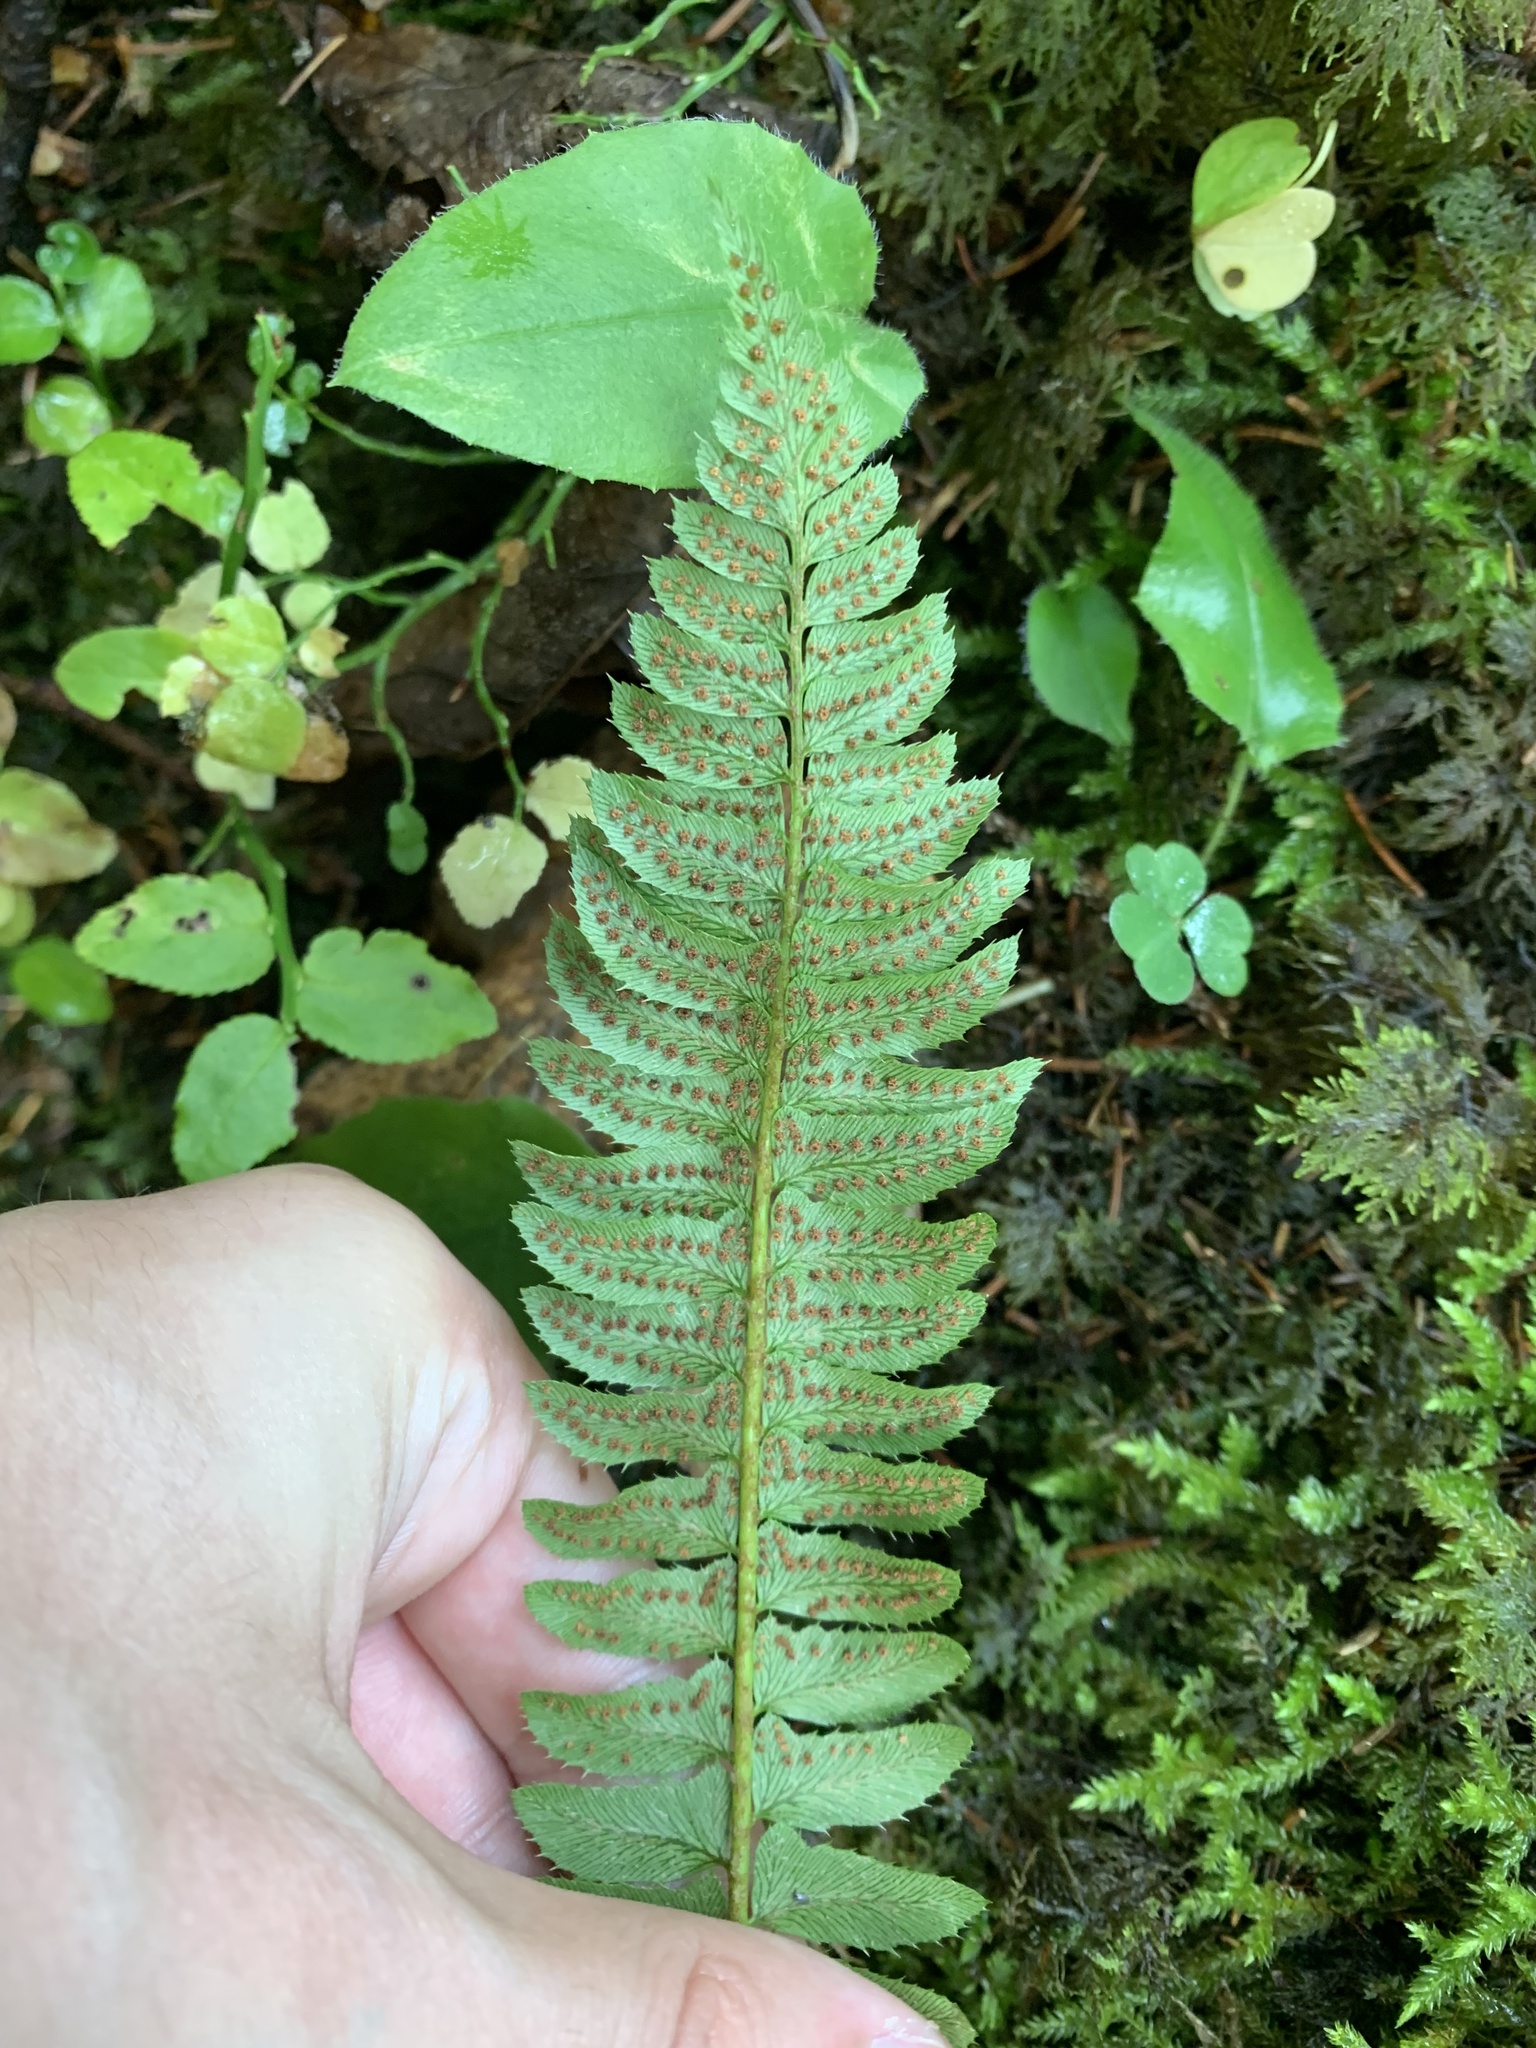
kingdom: Plantae
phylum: Tracheophyta
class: Polypodiopsida
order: Polypodiales
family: Dryopteridaceae
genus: Polystichum
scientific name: Polystichum lonchitis
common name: Holly fern
